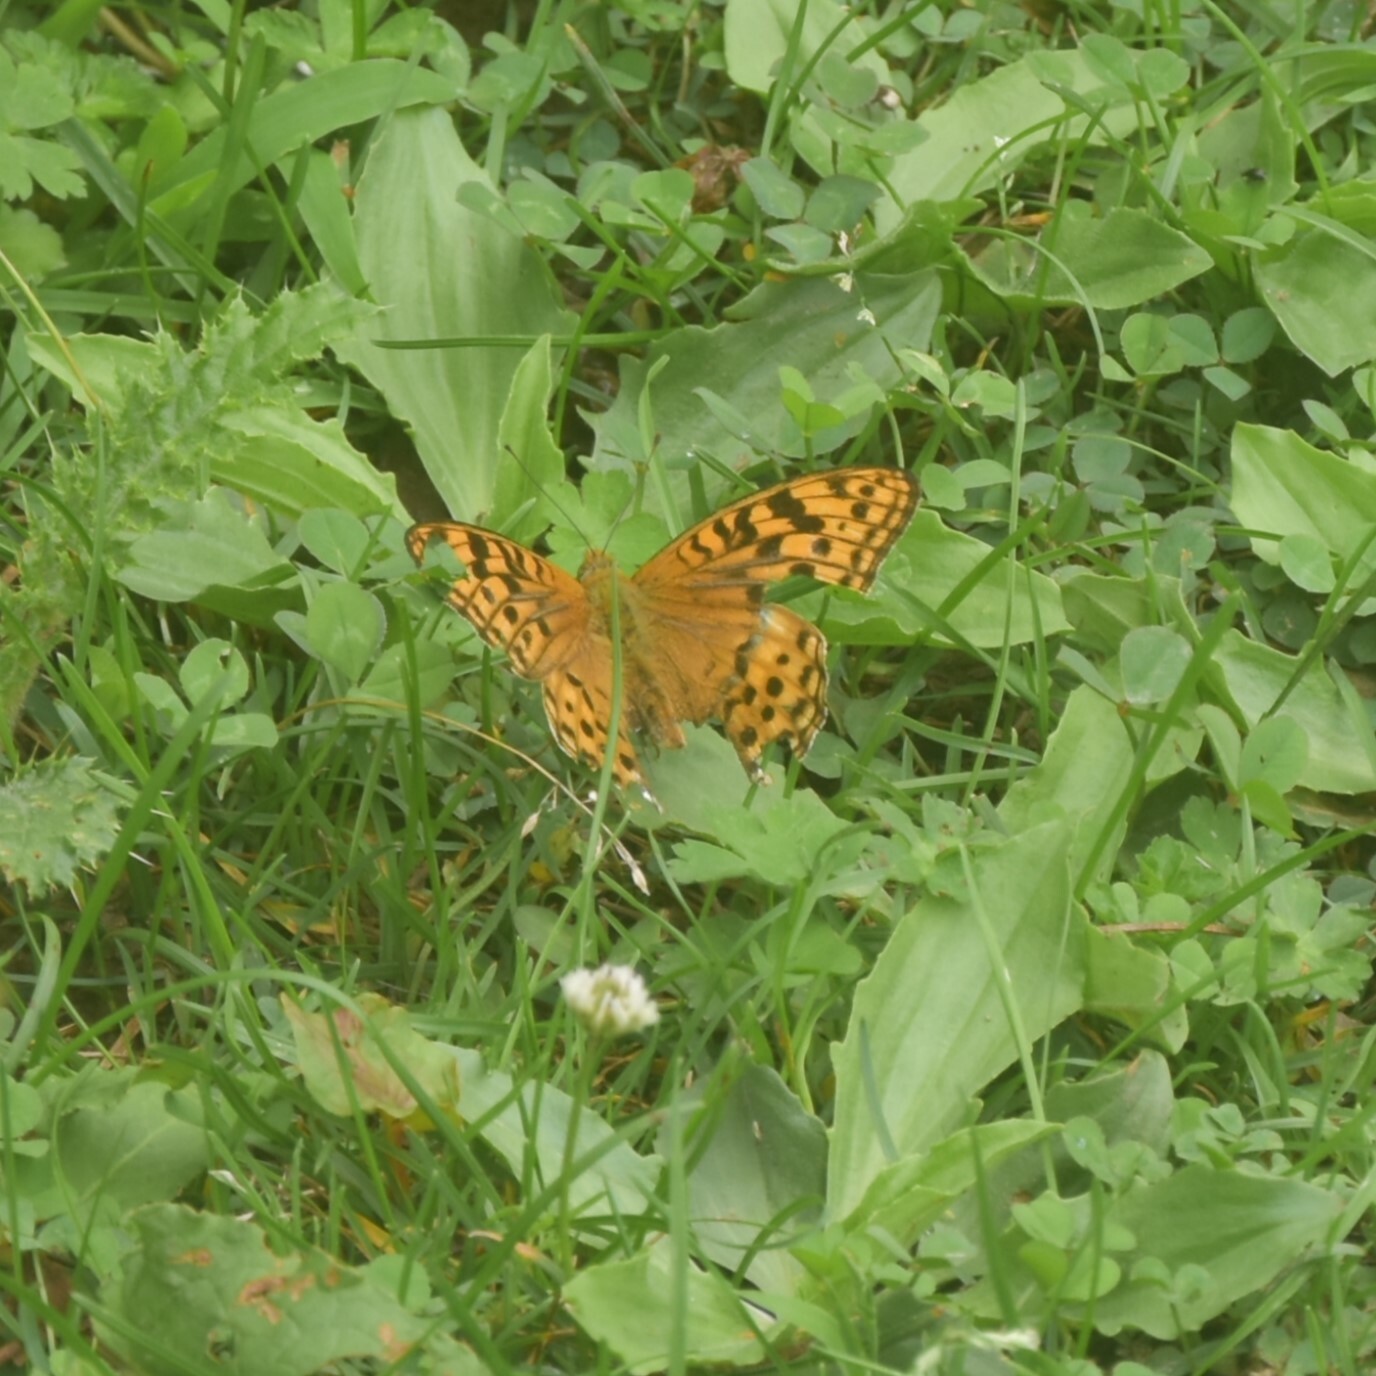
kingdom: Animalia
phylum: Arthropoda
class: Insecta
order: Lepidoptera
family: Nymphalidae
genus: Fabriciana
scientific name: Fabriciana kamala
